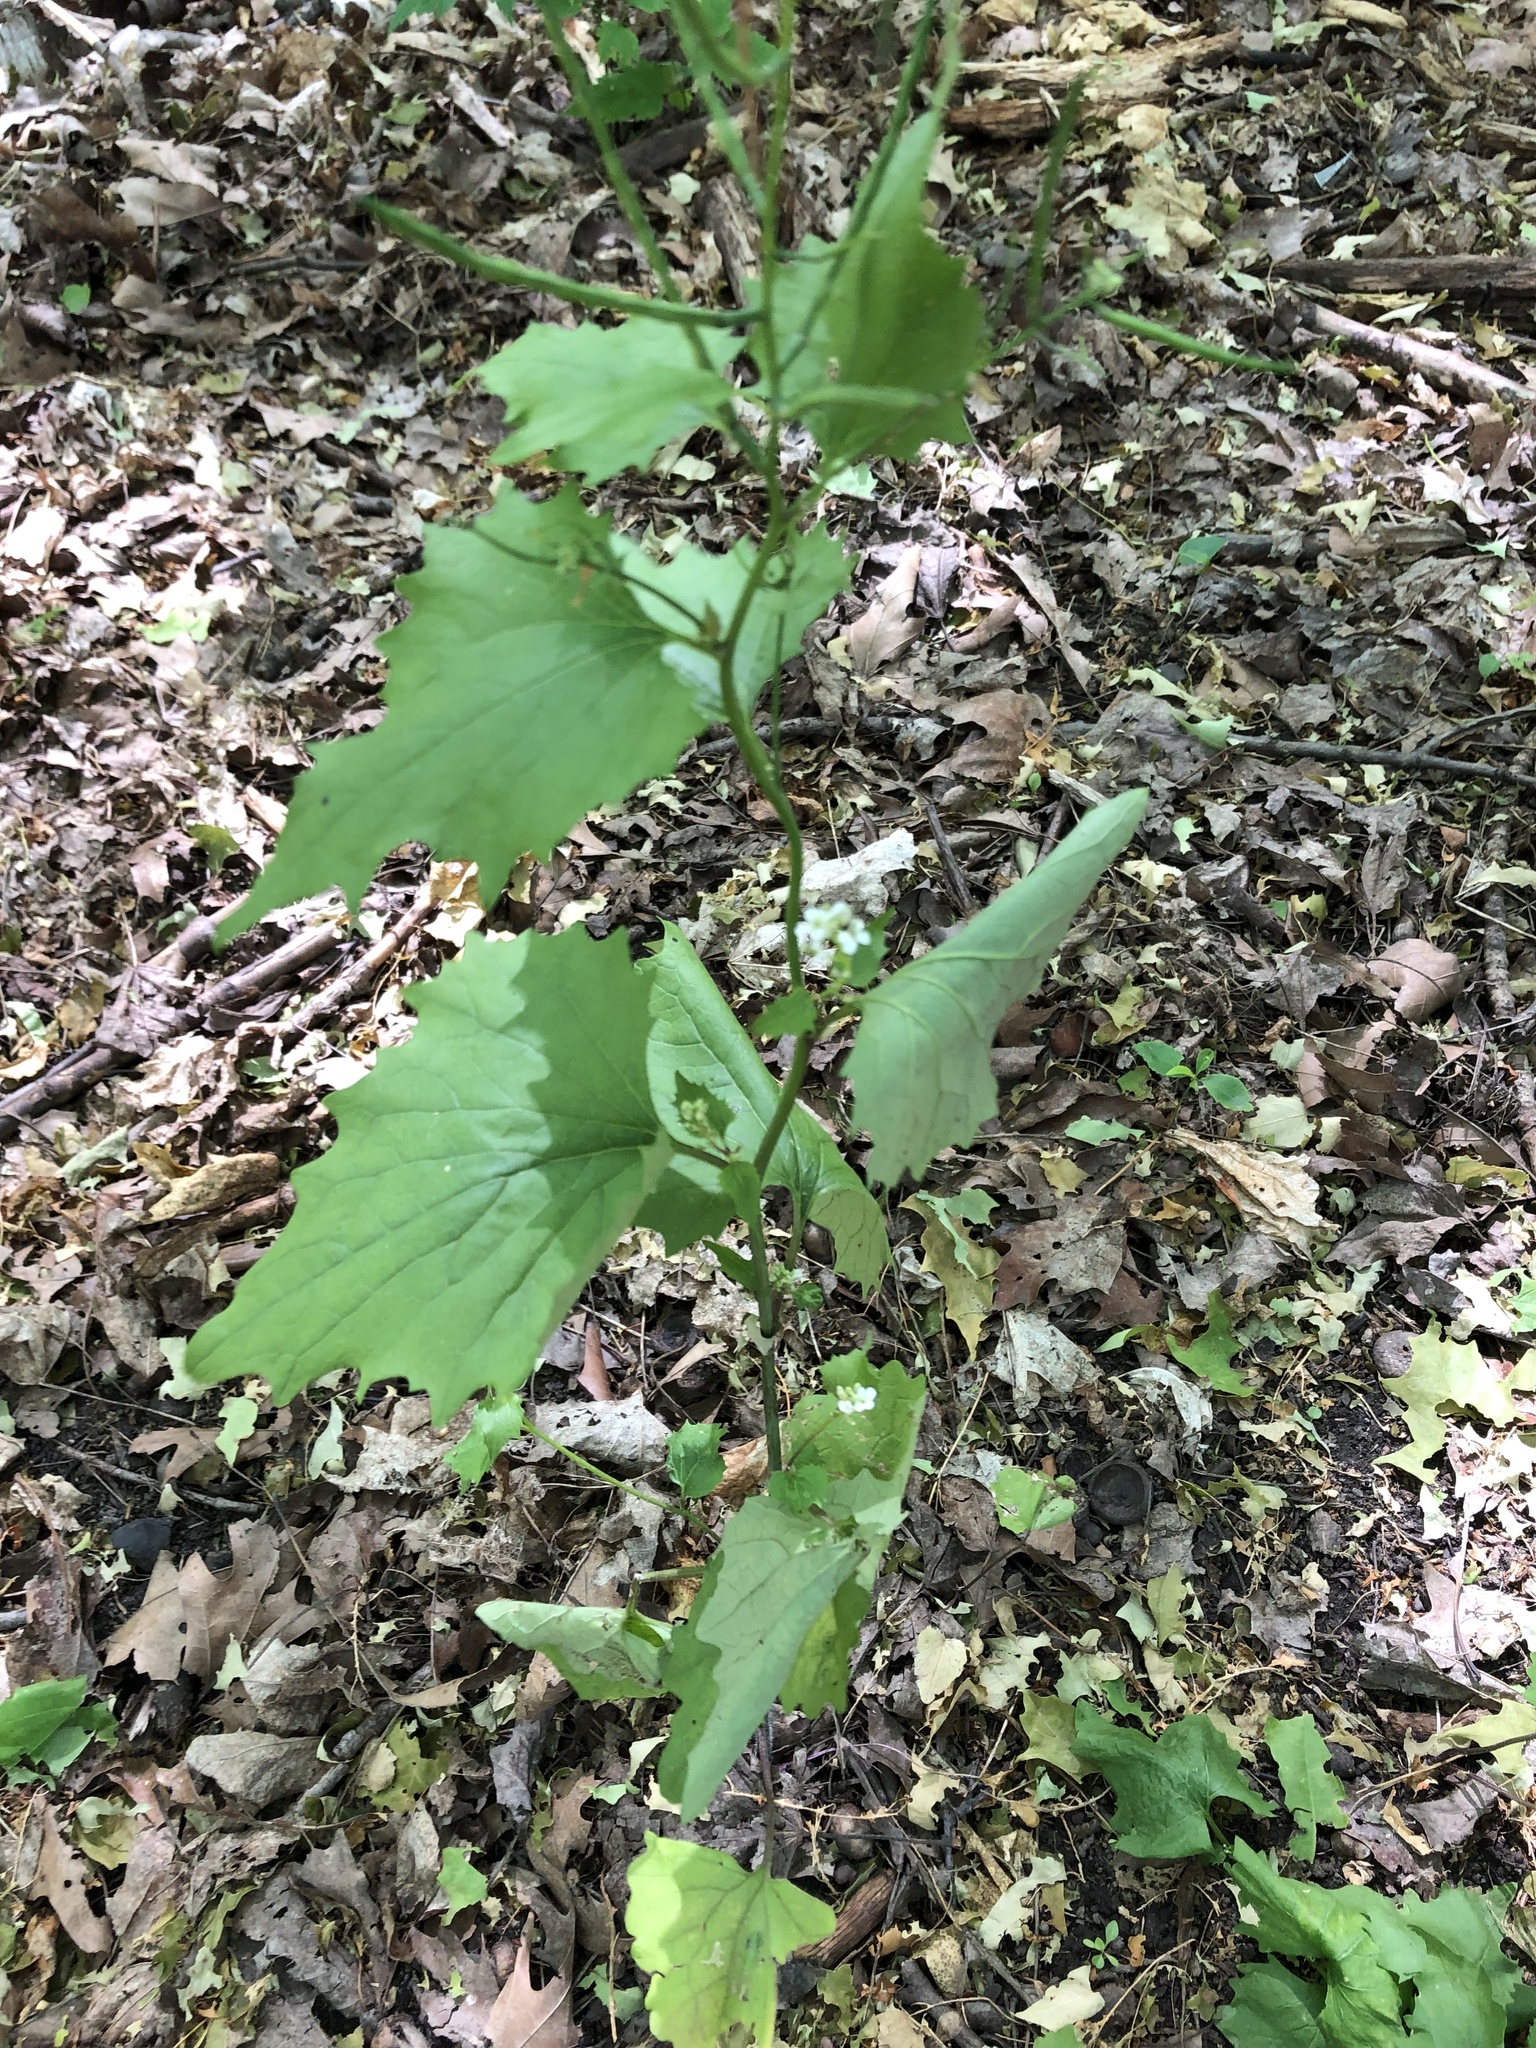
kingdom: Plantae
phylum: Tracheophyta
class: Magnoliopsida
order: Brassicales
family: Brassicaceae
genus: Alliaria
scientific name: Alliaria petiolata
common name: Garlic mustard
